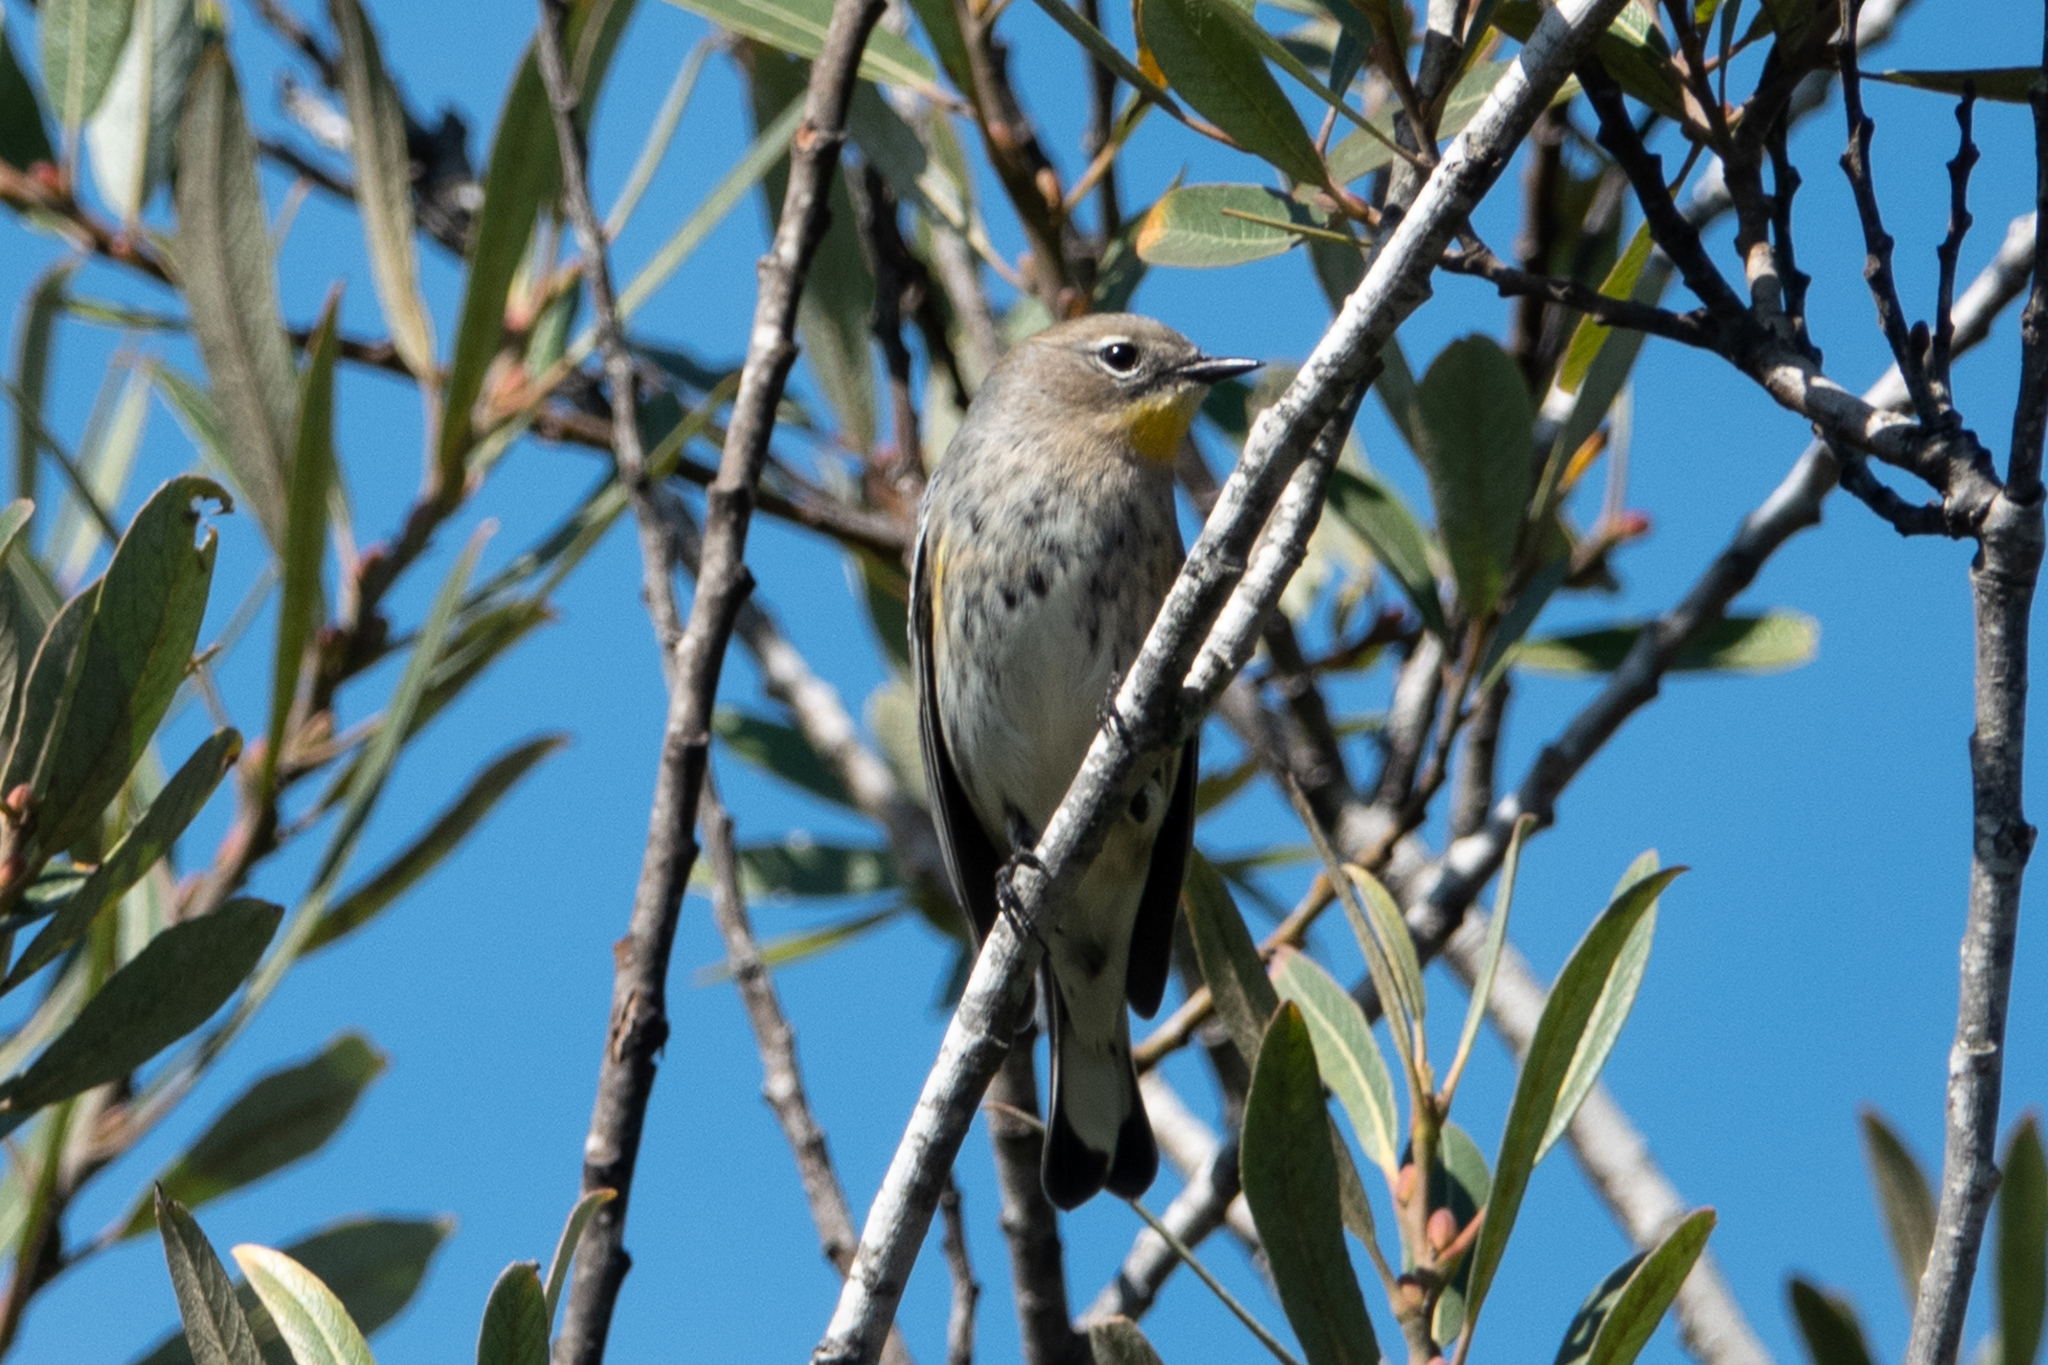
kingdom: Animalia
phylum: Chordata
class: Aves
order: Passeriformes
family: Parulidae
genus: Setophaga
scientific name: Setophaga coronata
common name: Myrtle warbler
